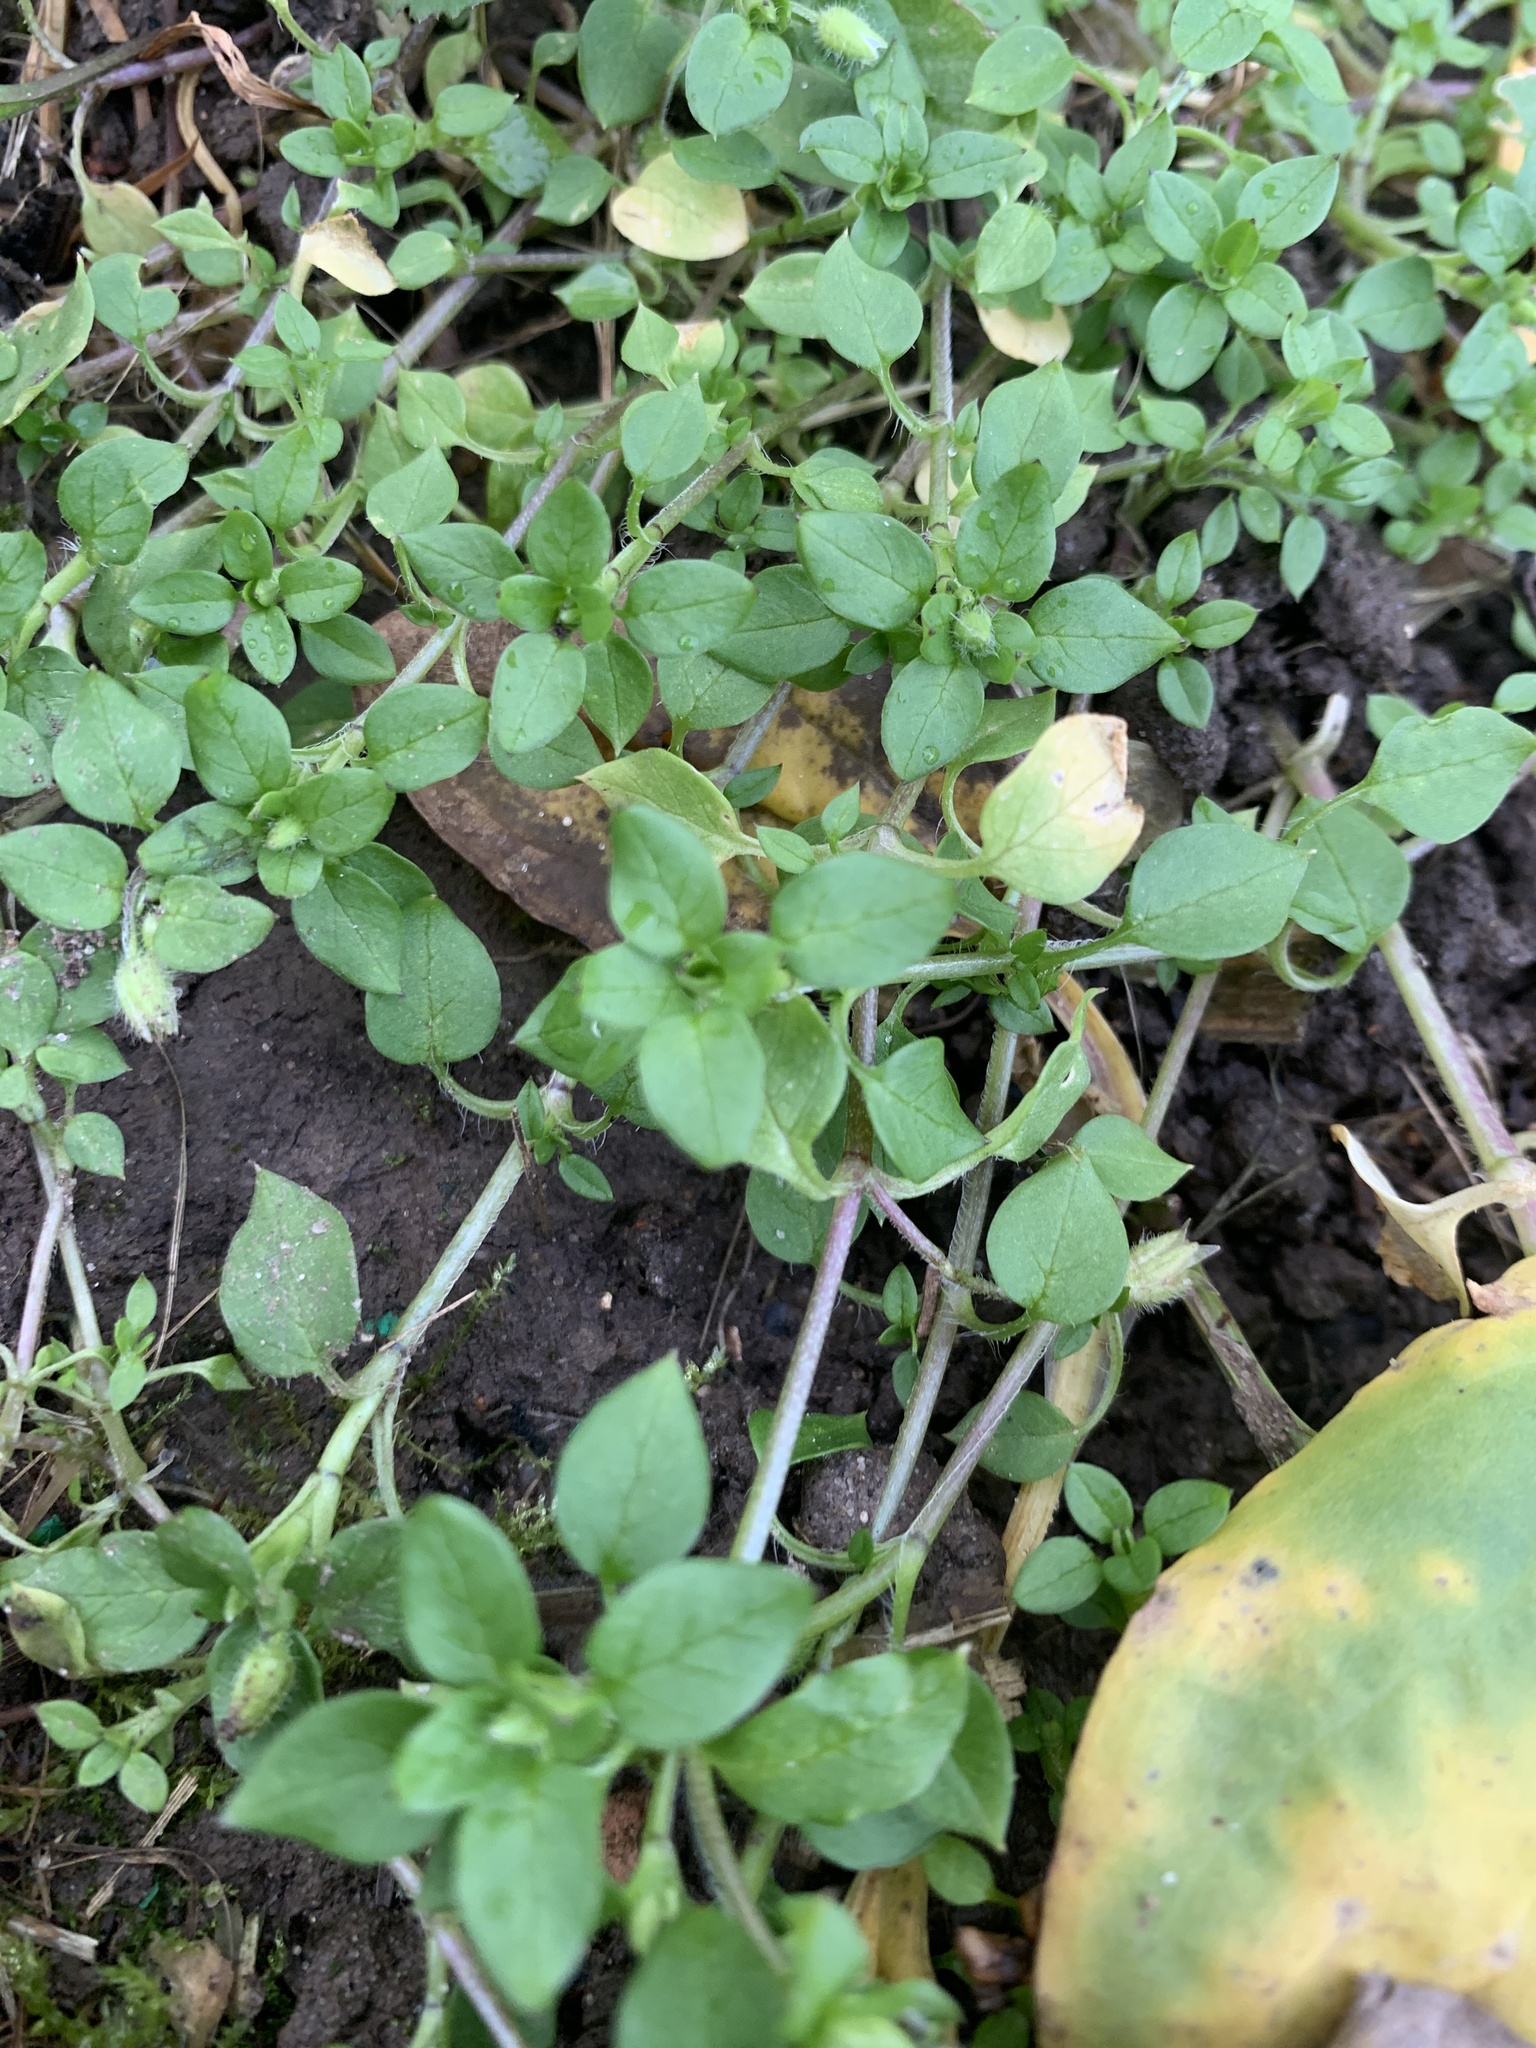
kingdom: Plantae
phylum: Tracheophyta
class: Magnoliopsida
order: Caryophyllales
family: Caryophyllaceae
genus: Stellaria
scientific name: Stellaria media
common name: Common chickweed
